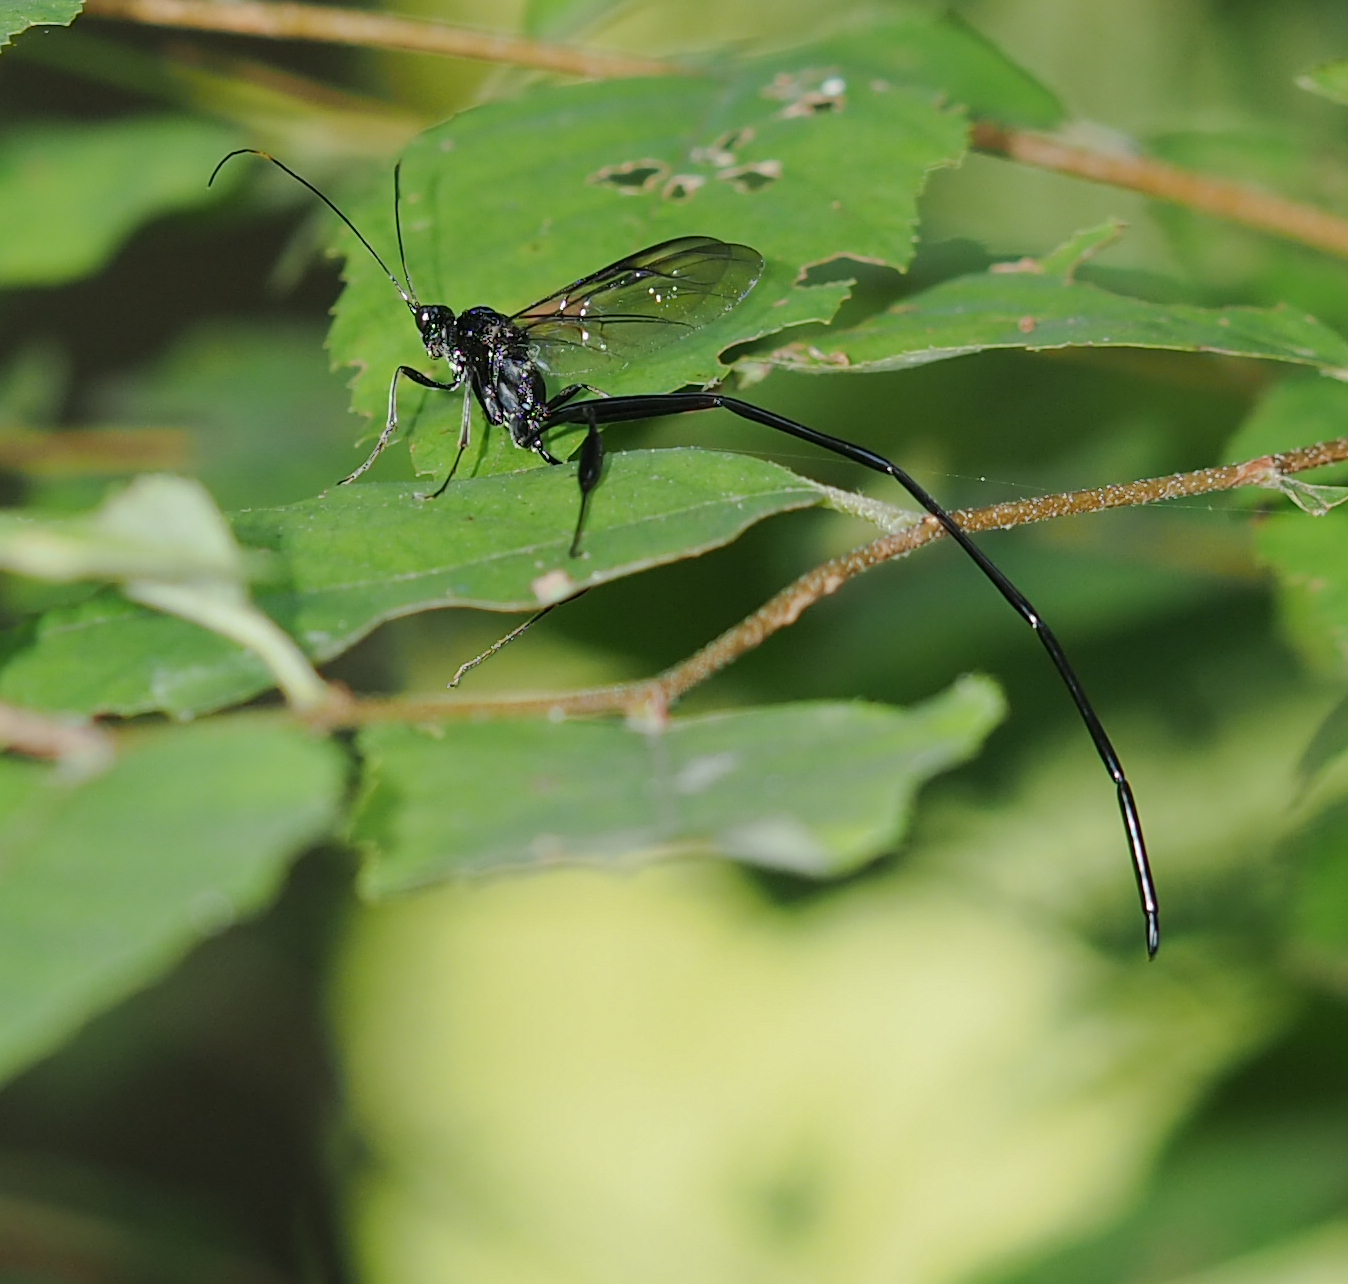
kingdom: Animalia
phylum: Arthropoda
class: Insecta
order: Hymenoptera
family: Pelecinidae
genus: Pelecinus
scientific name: Pelecinus polyturator
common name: American pelecinid wasp
